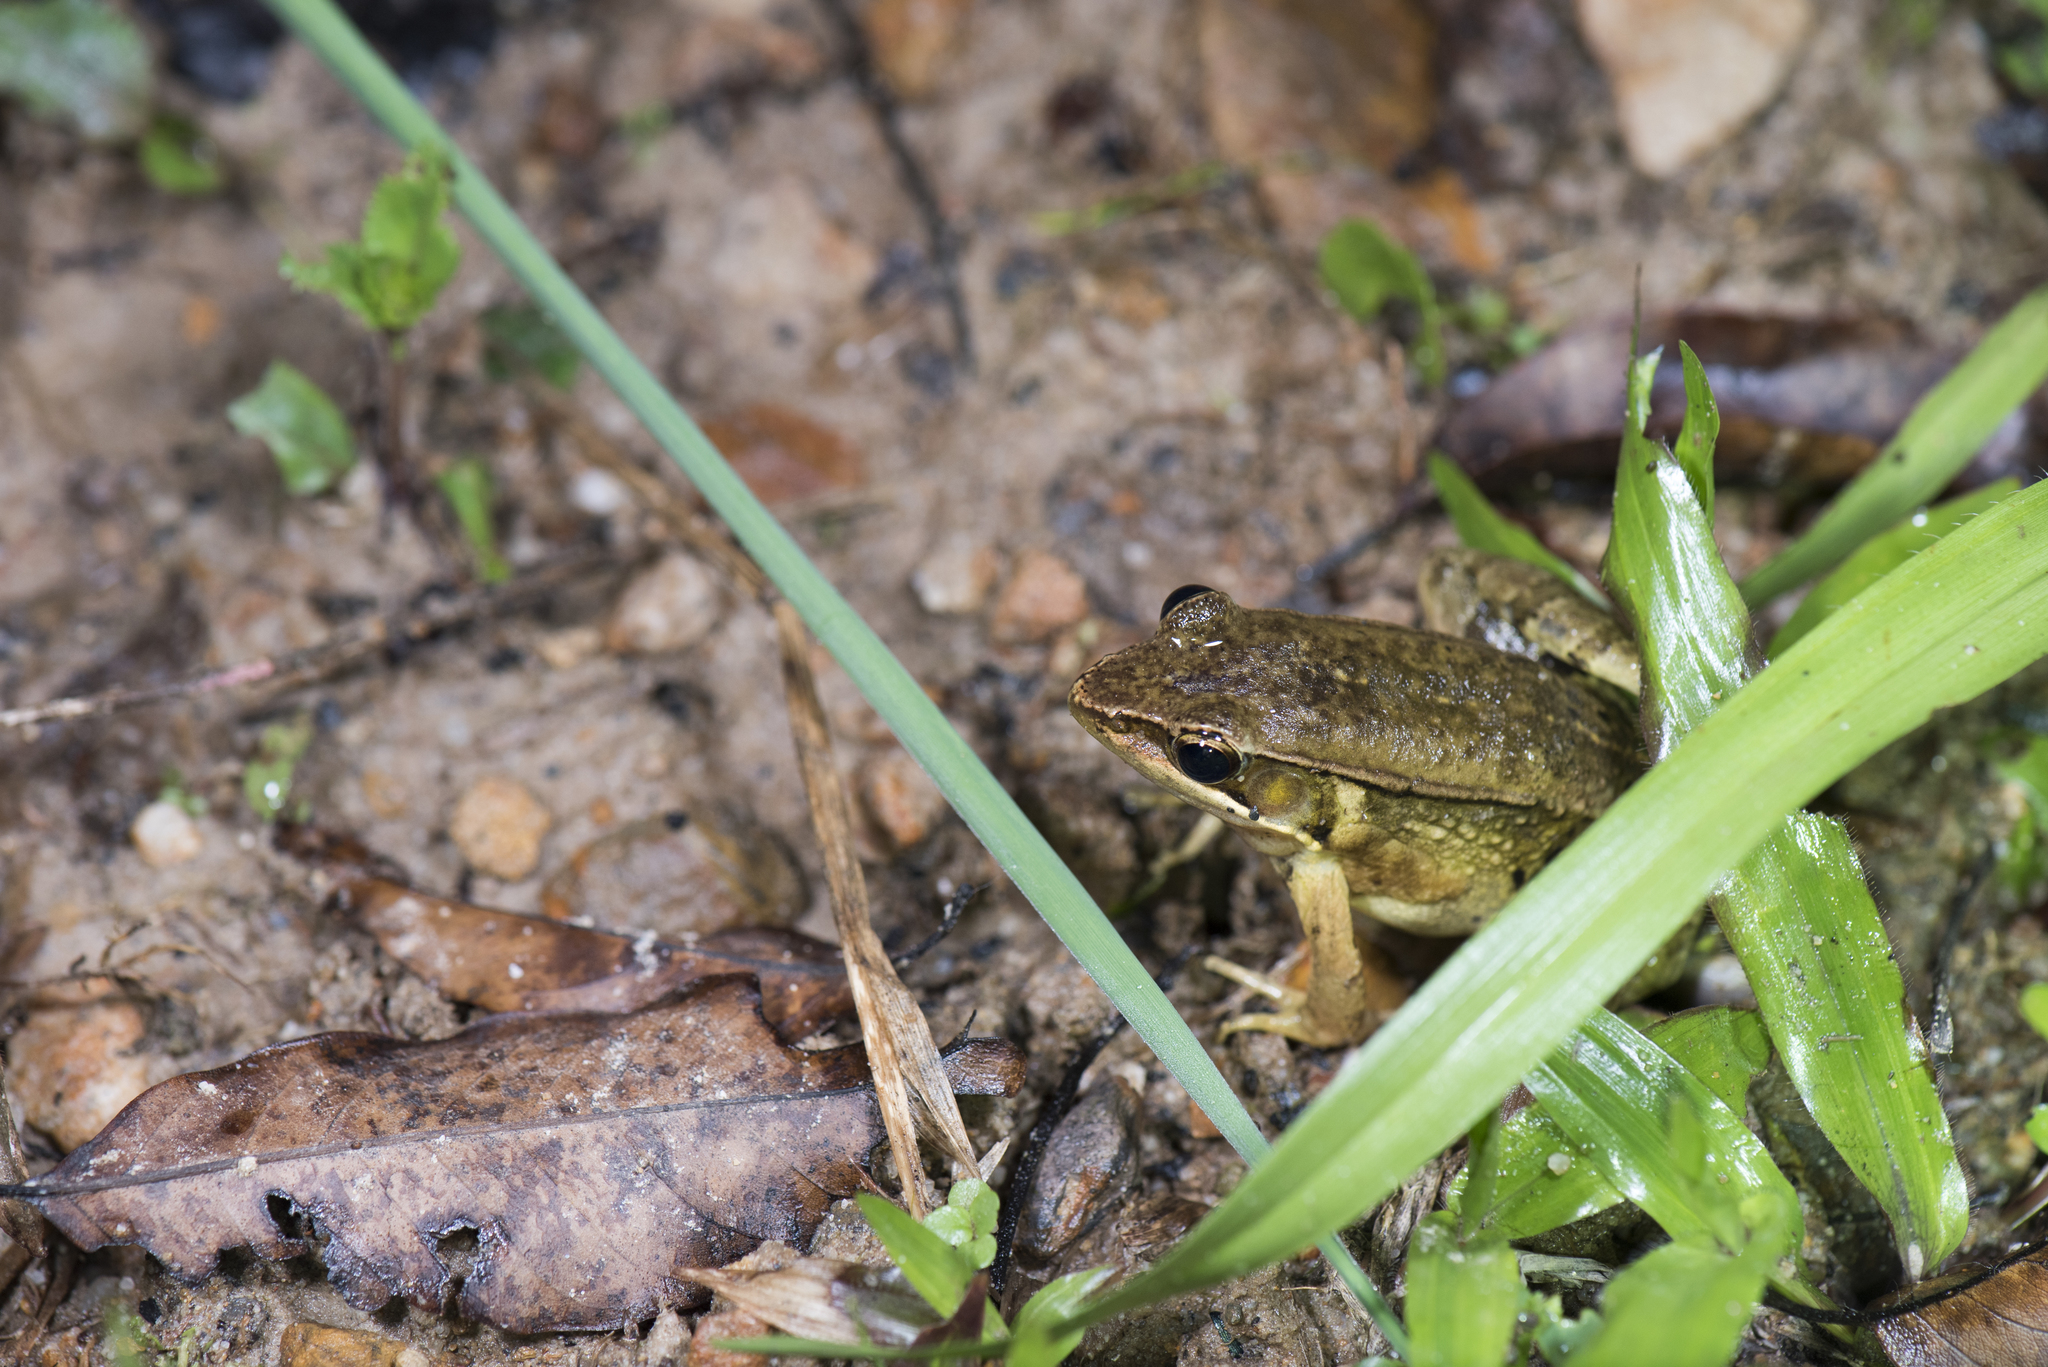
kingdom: Animalia
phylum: Chordata
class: Amphibia
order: Anura
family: Ranidae
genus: Nidirana
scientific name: Nidirana adenopleura
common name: Olive frog
